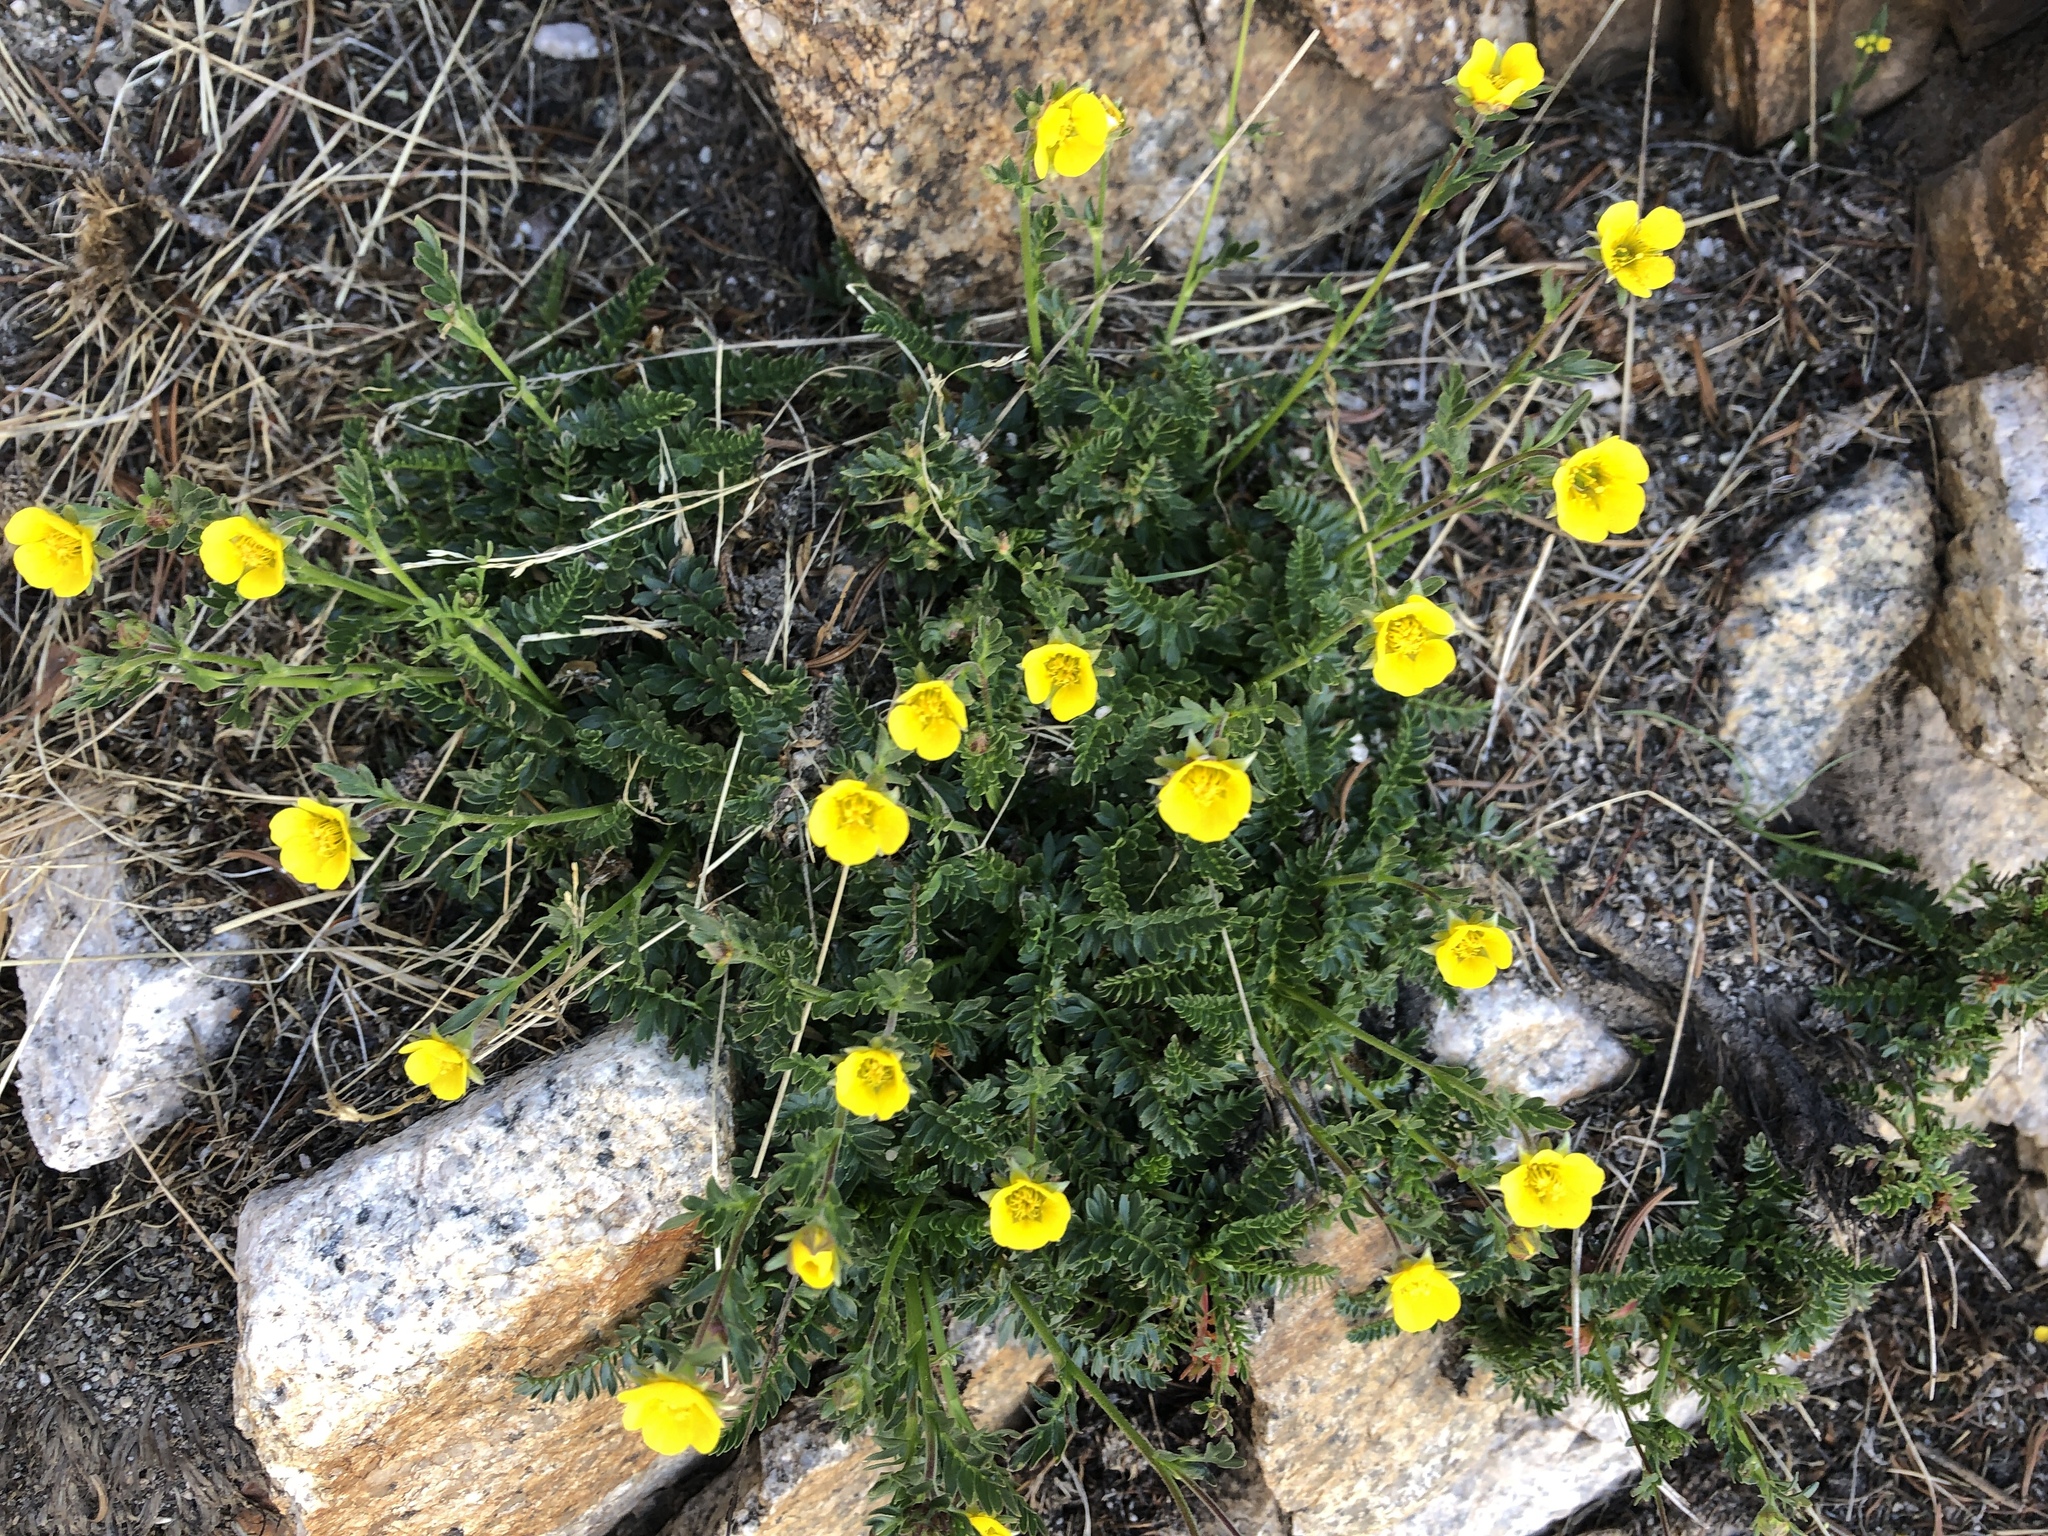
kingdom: Plantae
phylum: Tracheophyta
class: Magnoliopsida
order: Rosales
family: Rosaceae
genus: Geum
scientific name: Geum rossii
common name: Alpine avens
